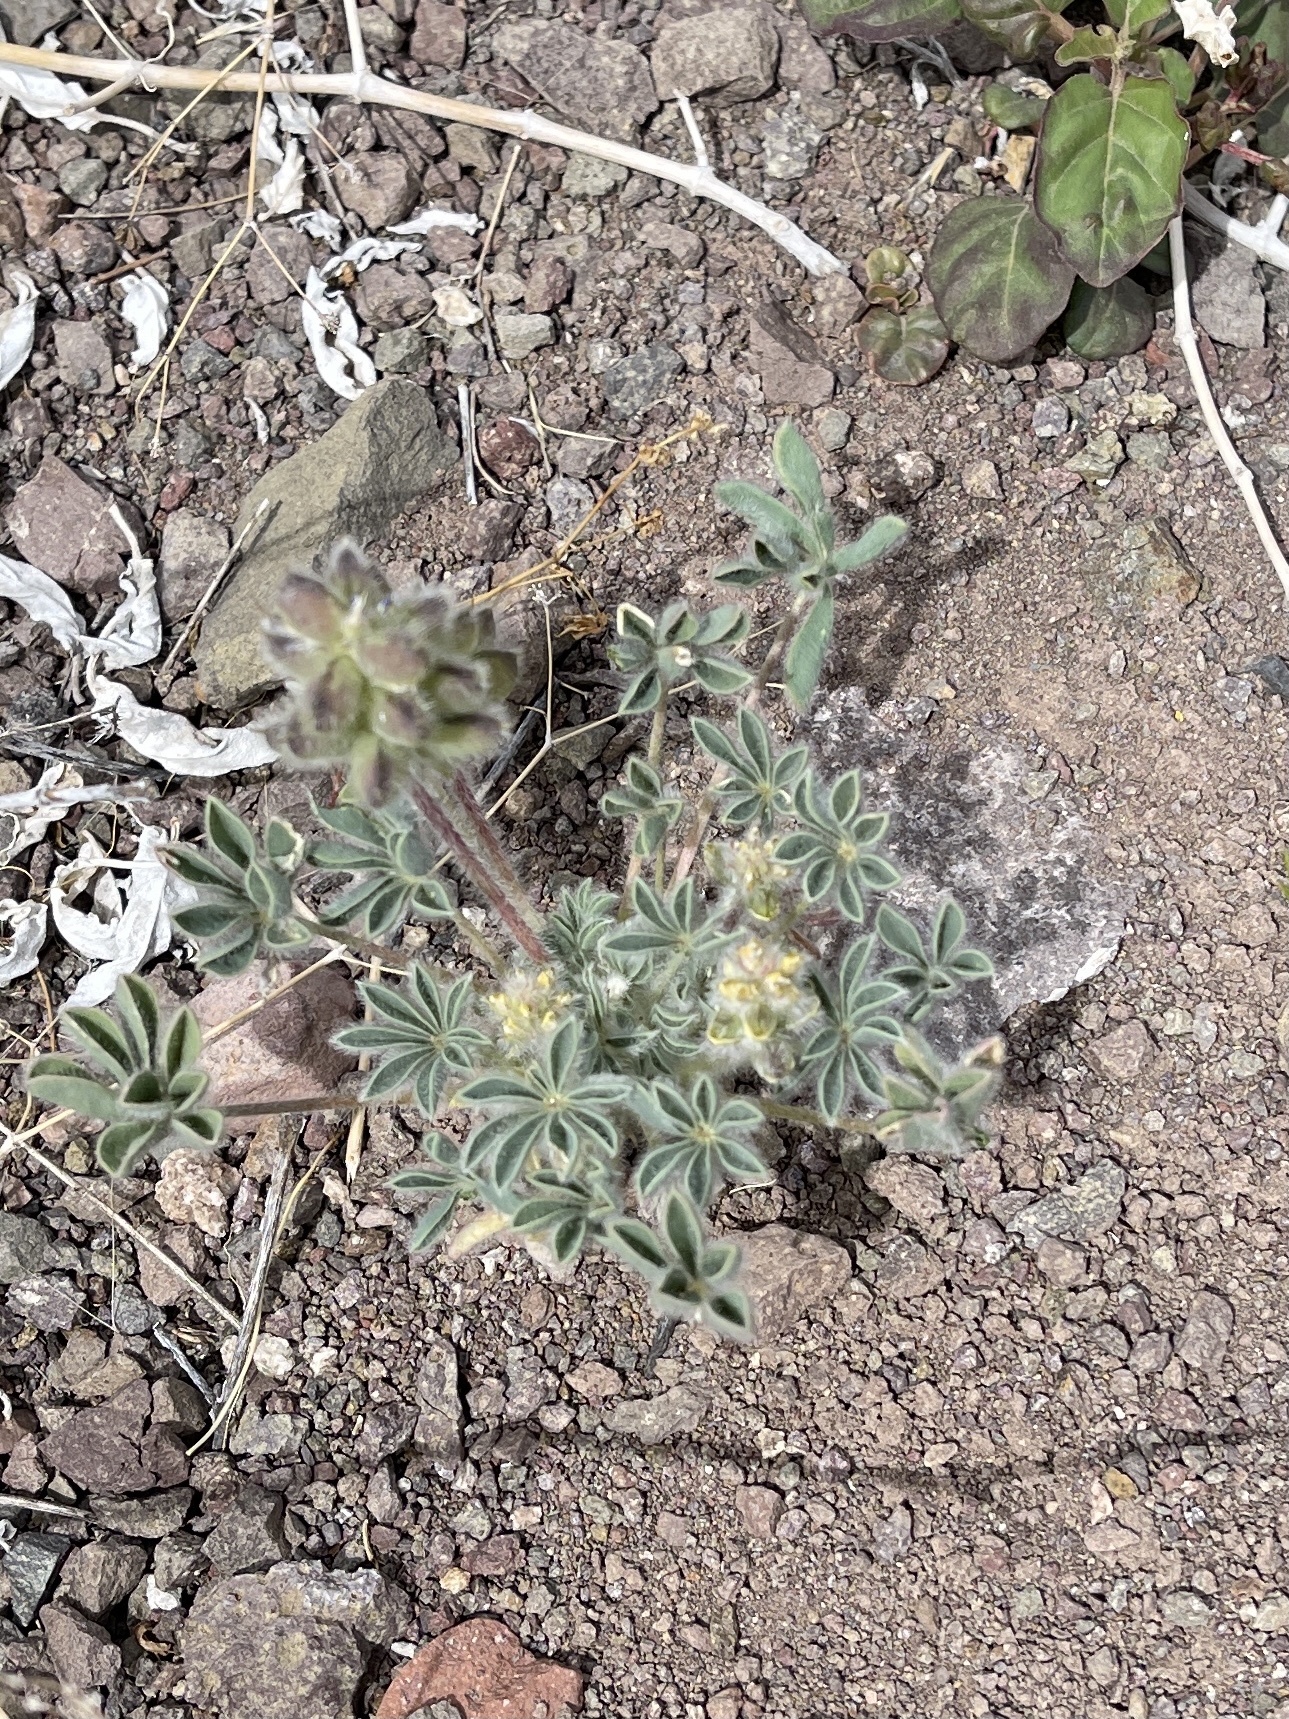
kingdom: Plantae
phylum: Tracheophyta
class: Magnoliopsida
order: Fabales
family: Fabaceae
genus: Lupinus
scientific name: Lupinus concinnus
